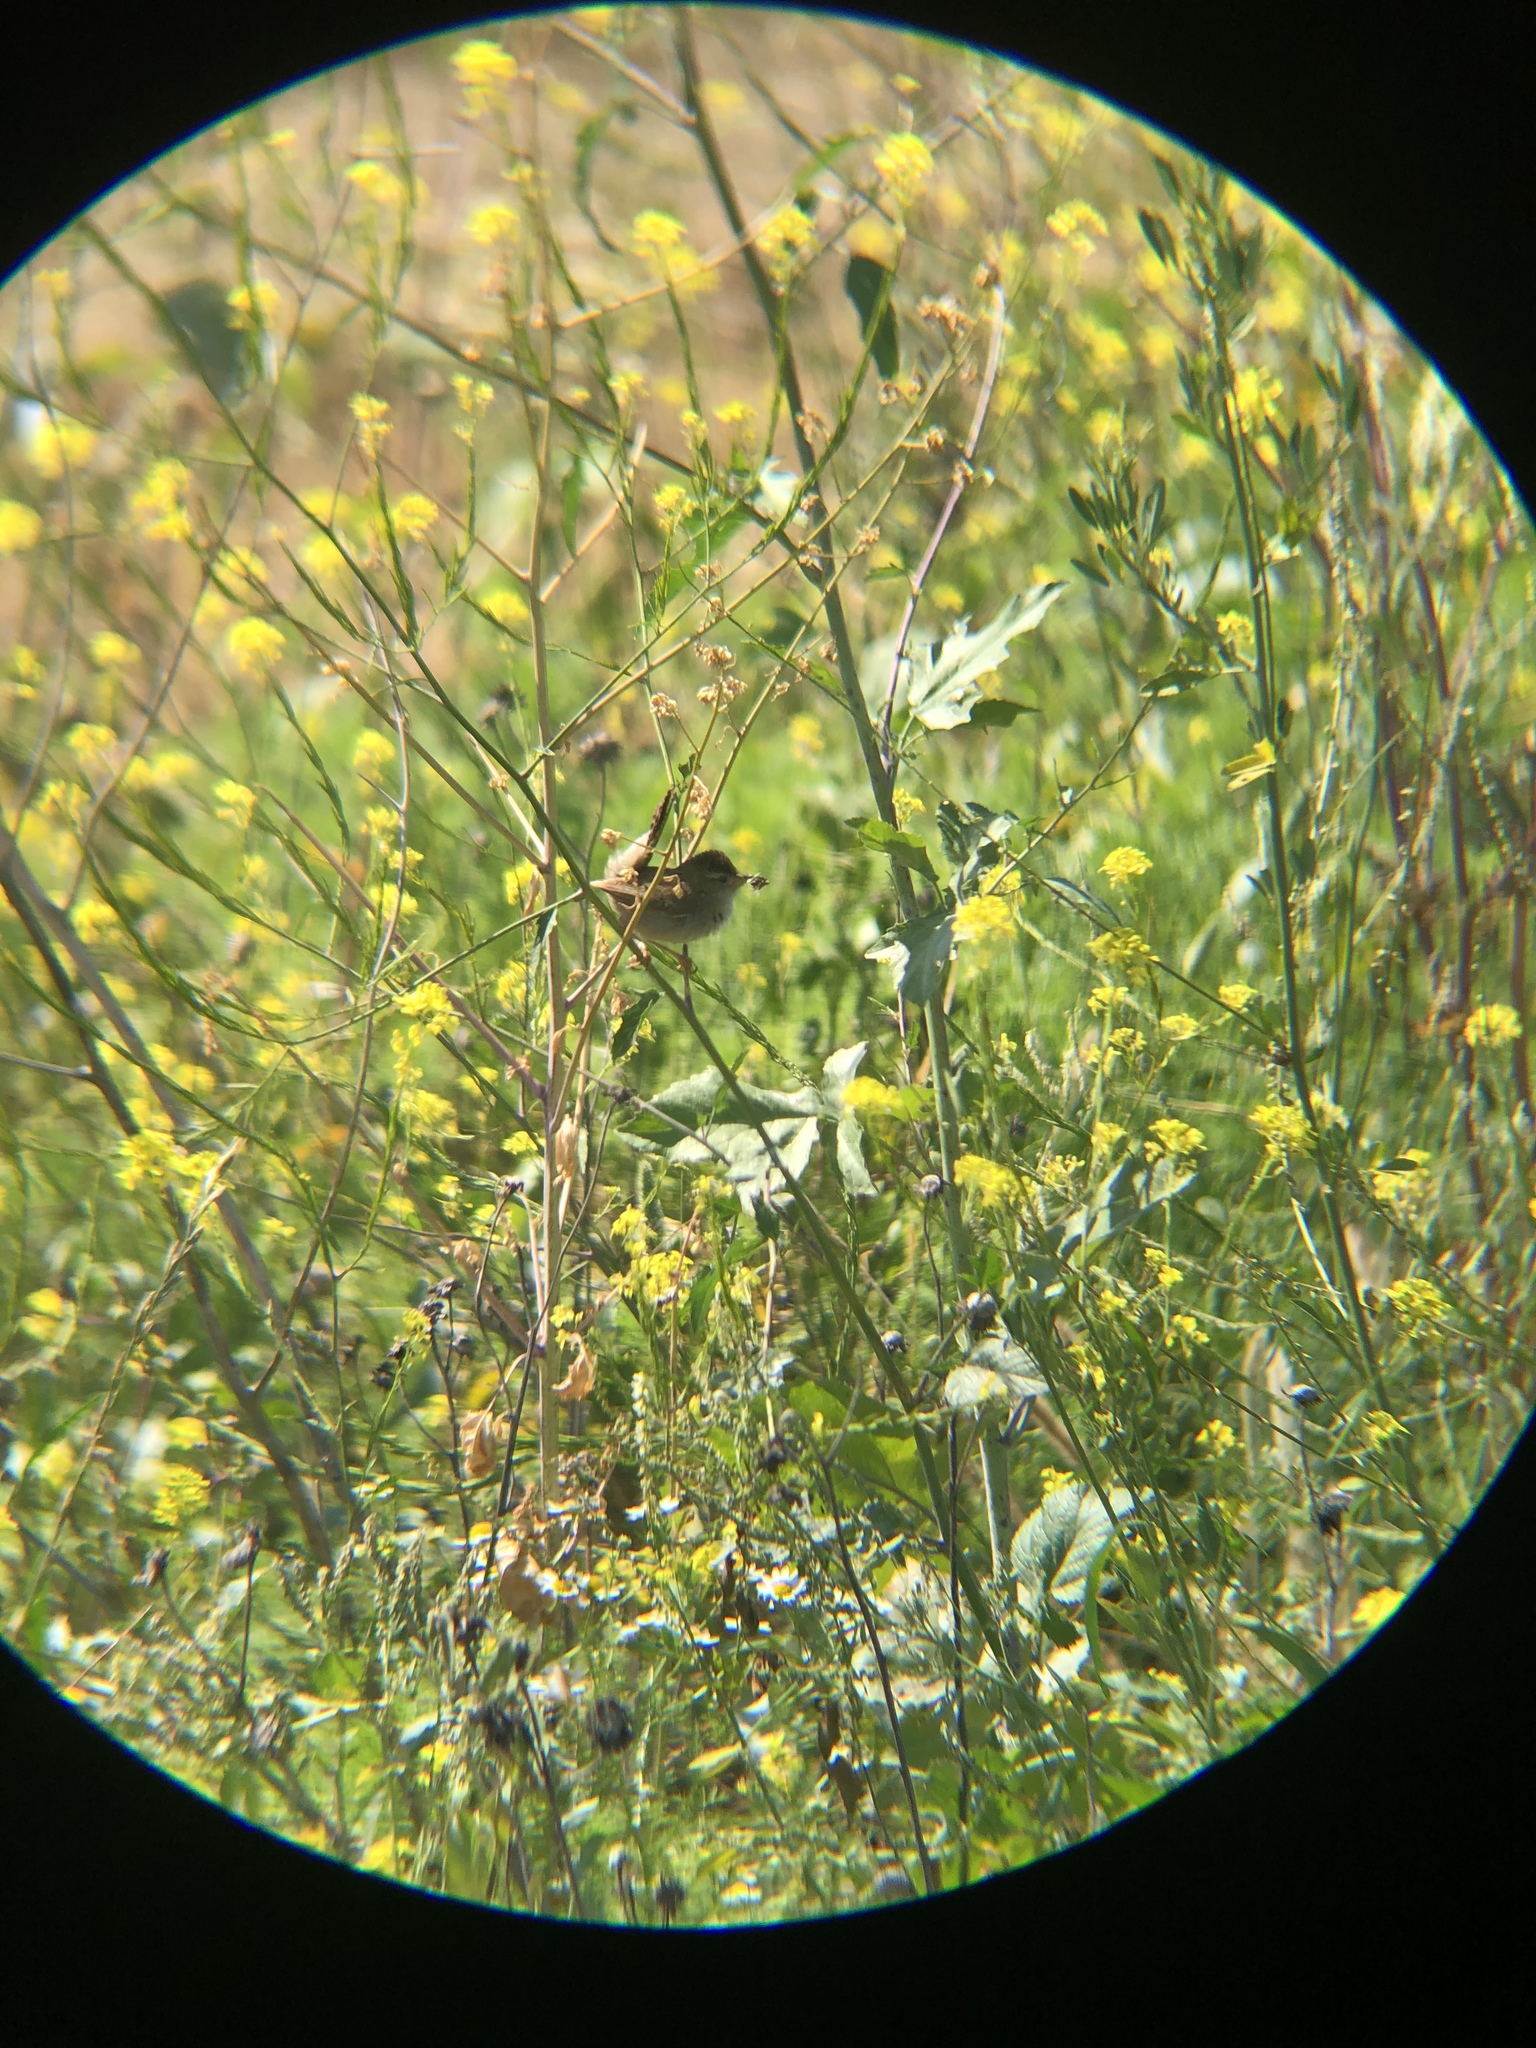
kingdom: Animalia
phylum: Chordata
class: Aves
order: Passeriformes
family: Troglodytidae
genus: Cistothorus
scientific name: Cistothorus palustris
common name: Marsh wren
